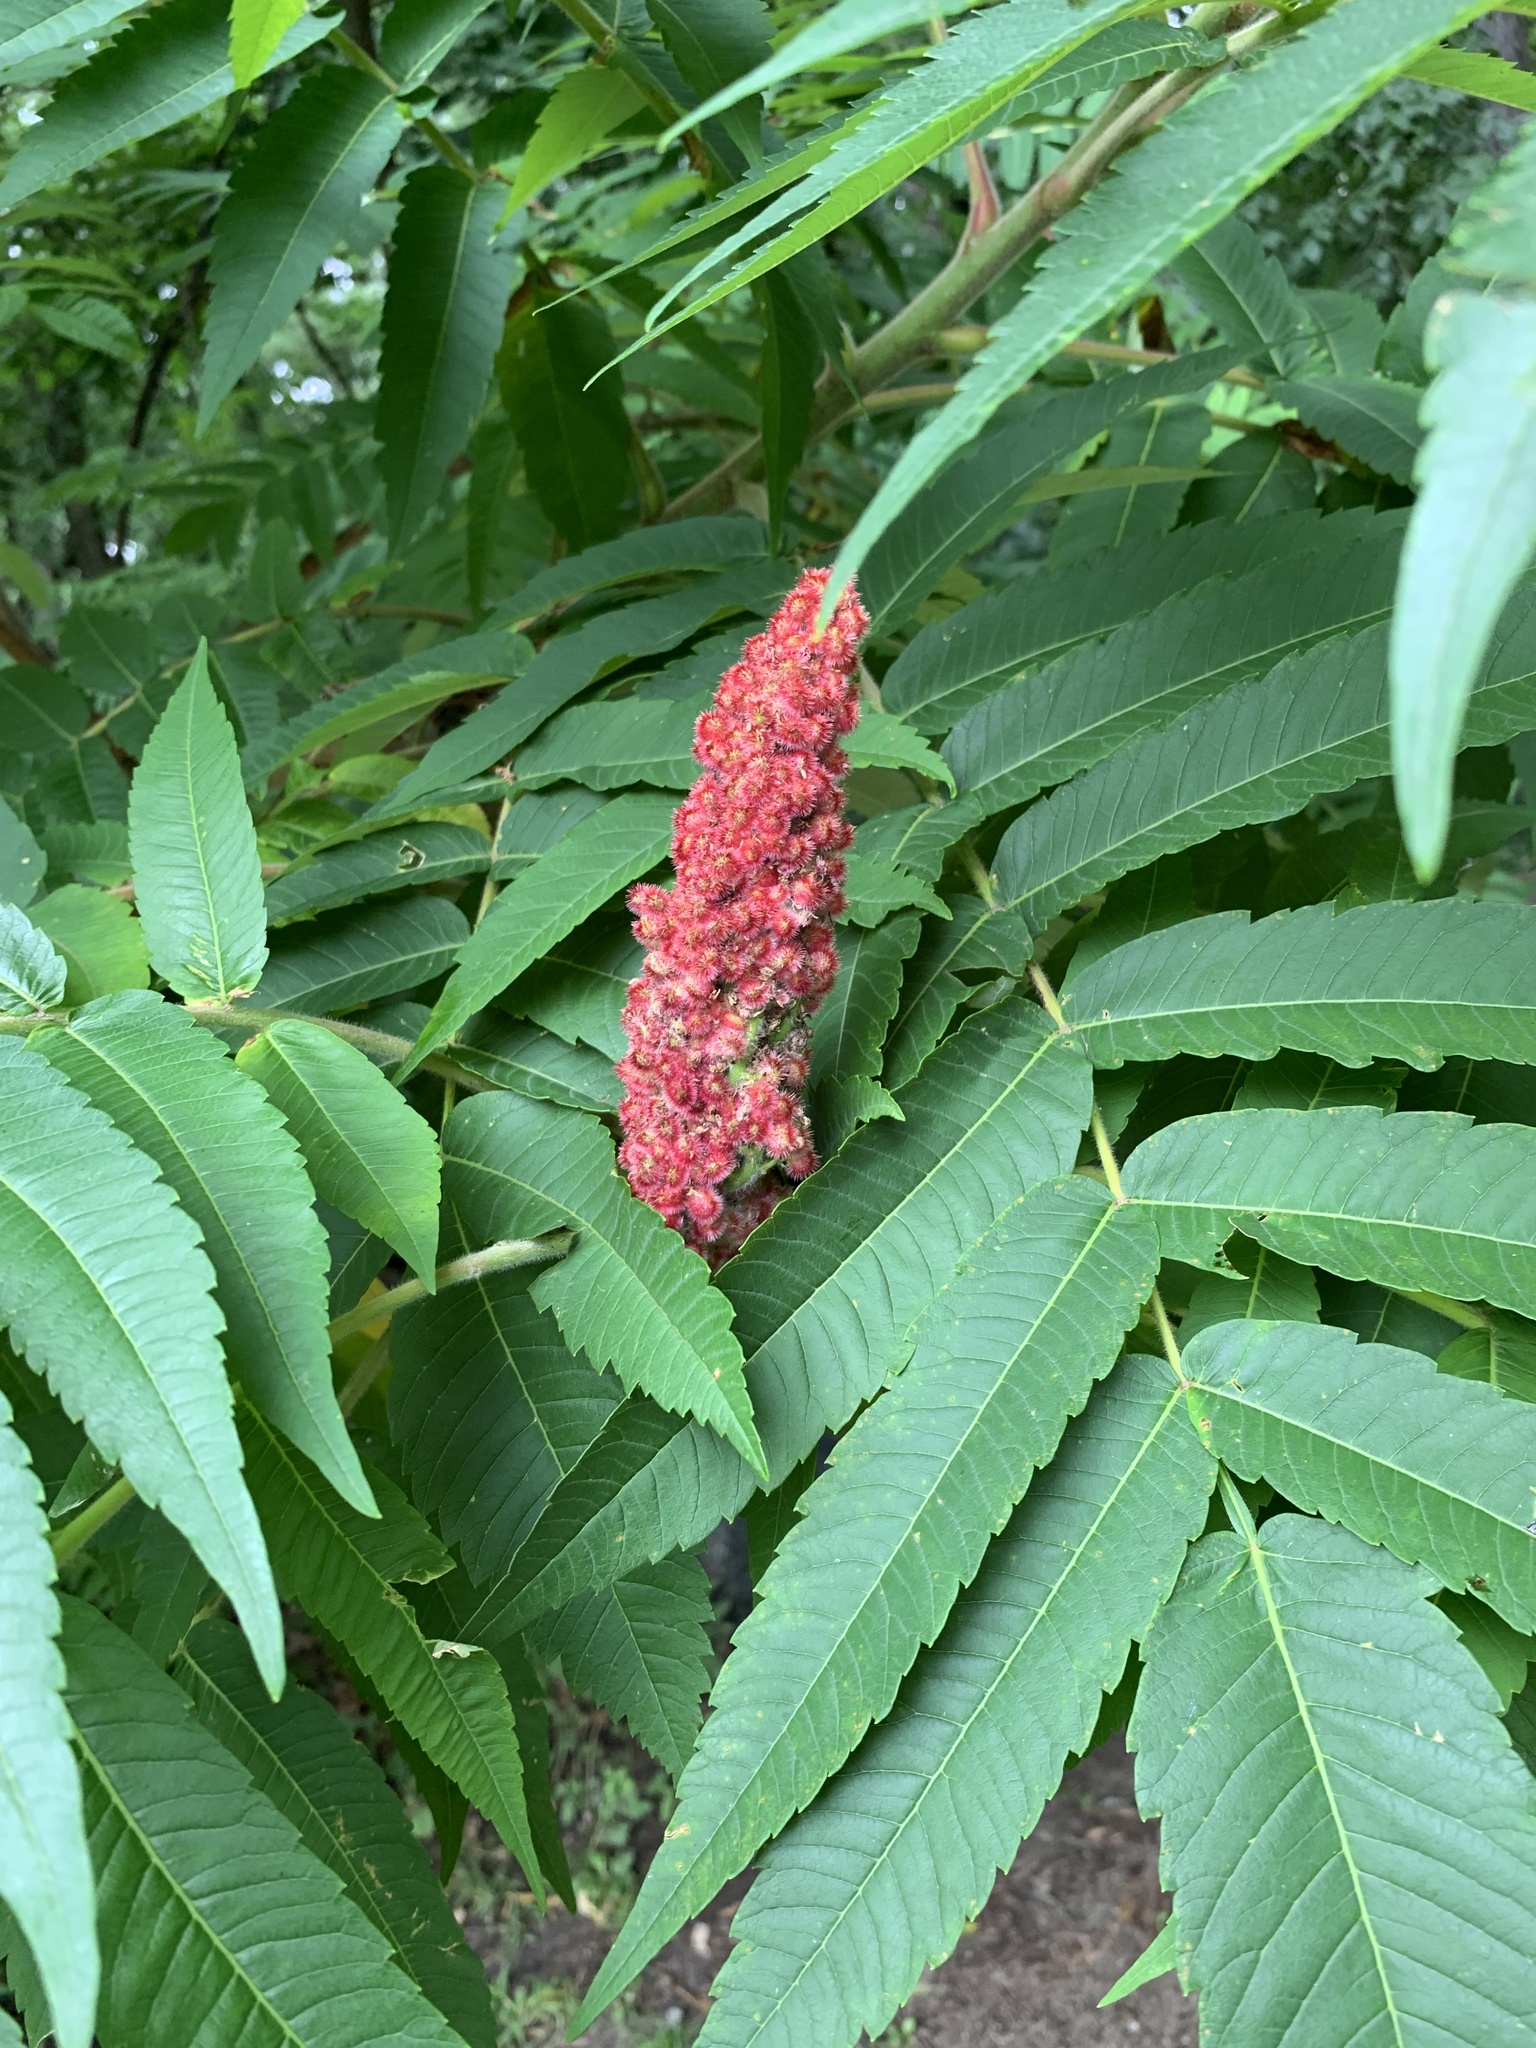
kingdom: Plantae
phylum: Tracheophyta
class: Magnoliopsida
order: Sapindales
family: Anacardiaceae
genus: Rhus
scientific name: Rhus typhina
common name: Staghorn sumac
